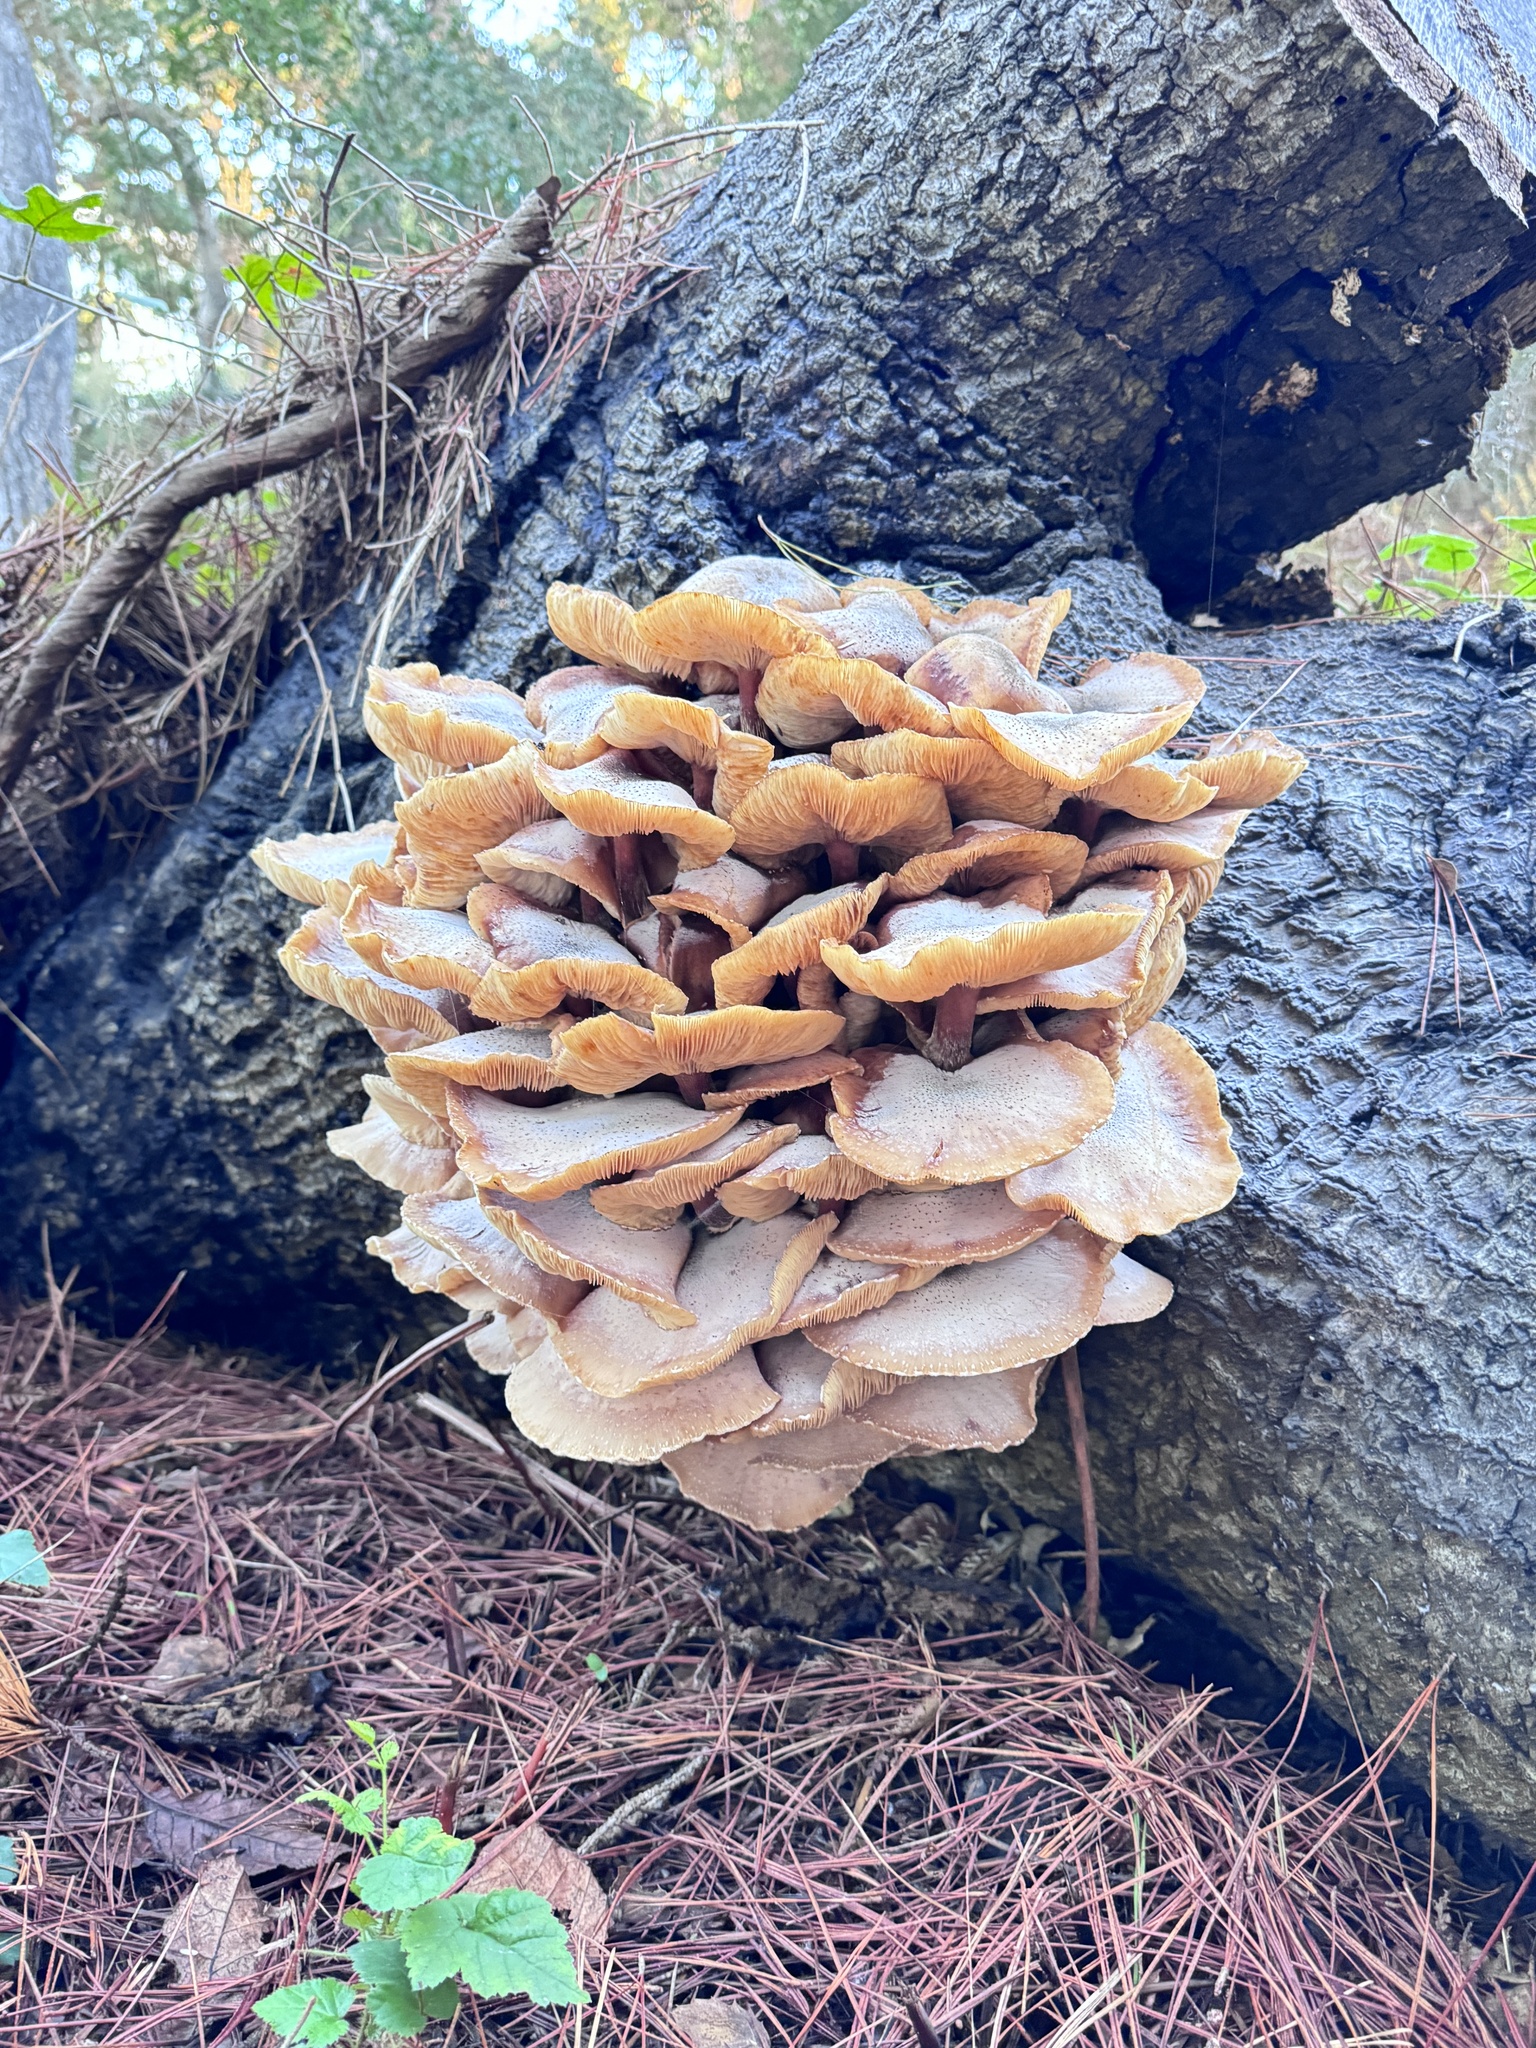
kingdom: Fungi
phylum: Basidiomycota
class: Agaricomycetes
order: Agaricales
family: Physalacriaceae
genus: Armillaria
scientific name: Armillaria mellea
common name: Honey fungus
